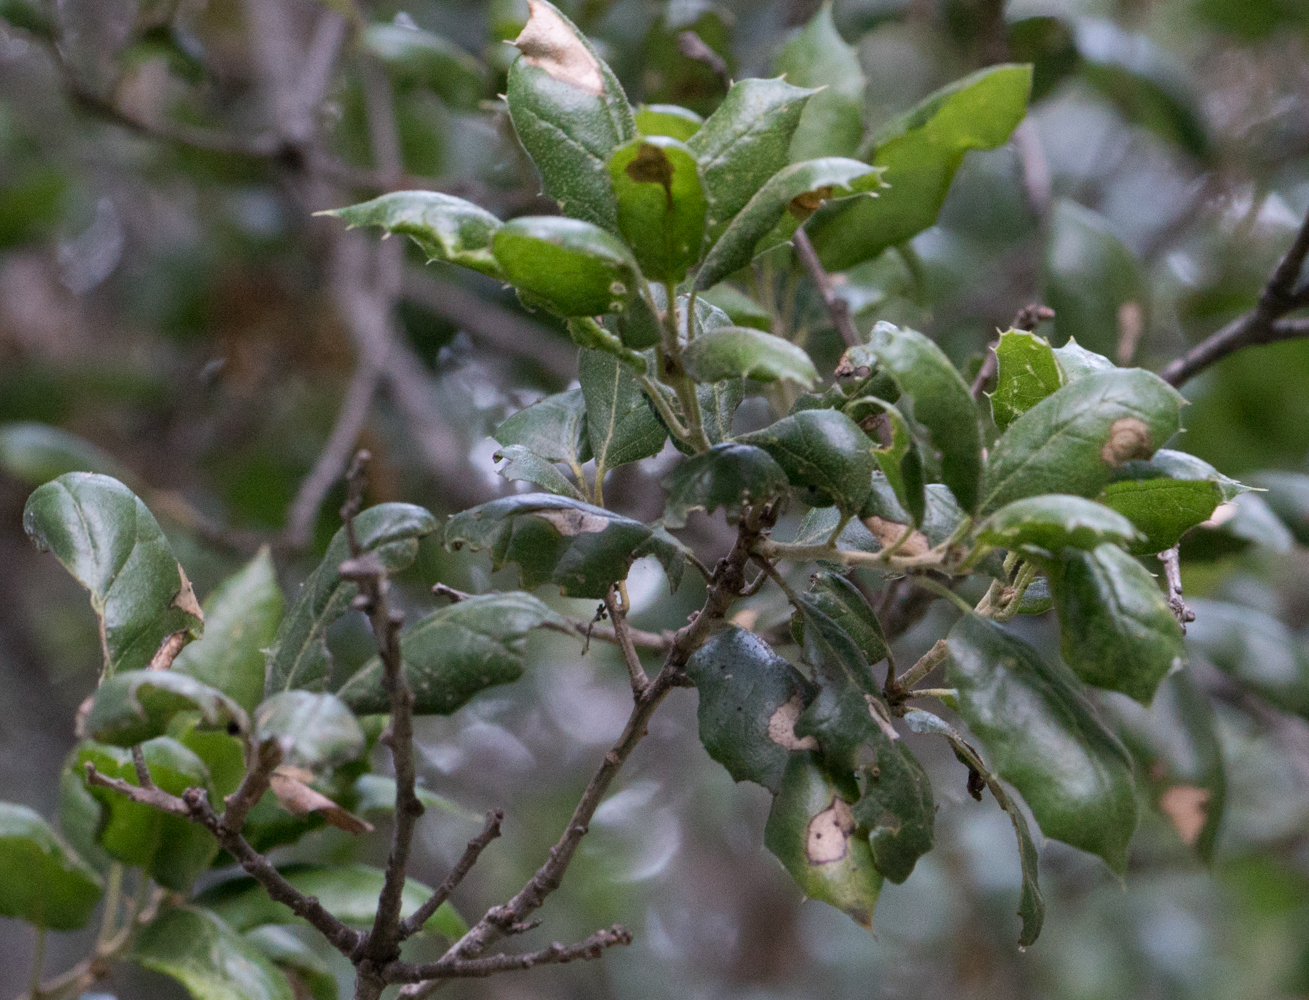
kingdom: Plantae
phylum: Tracheophyta
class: Magnoliopsida
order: Fagales
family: Fagaceae
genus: Quercus
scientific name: Quercus agrifolia
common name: California live oak
